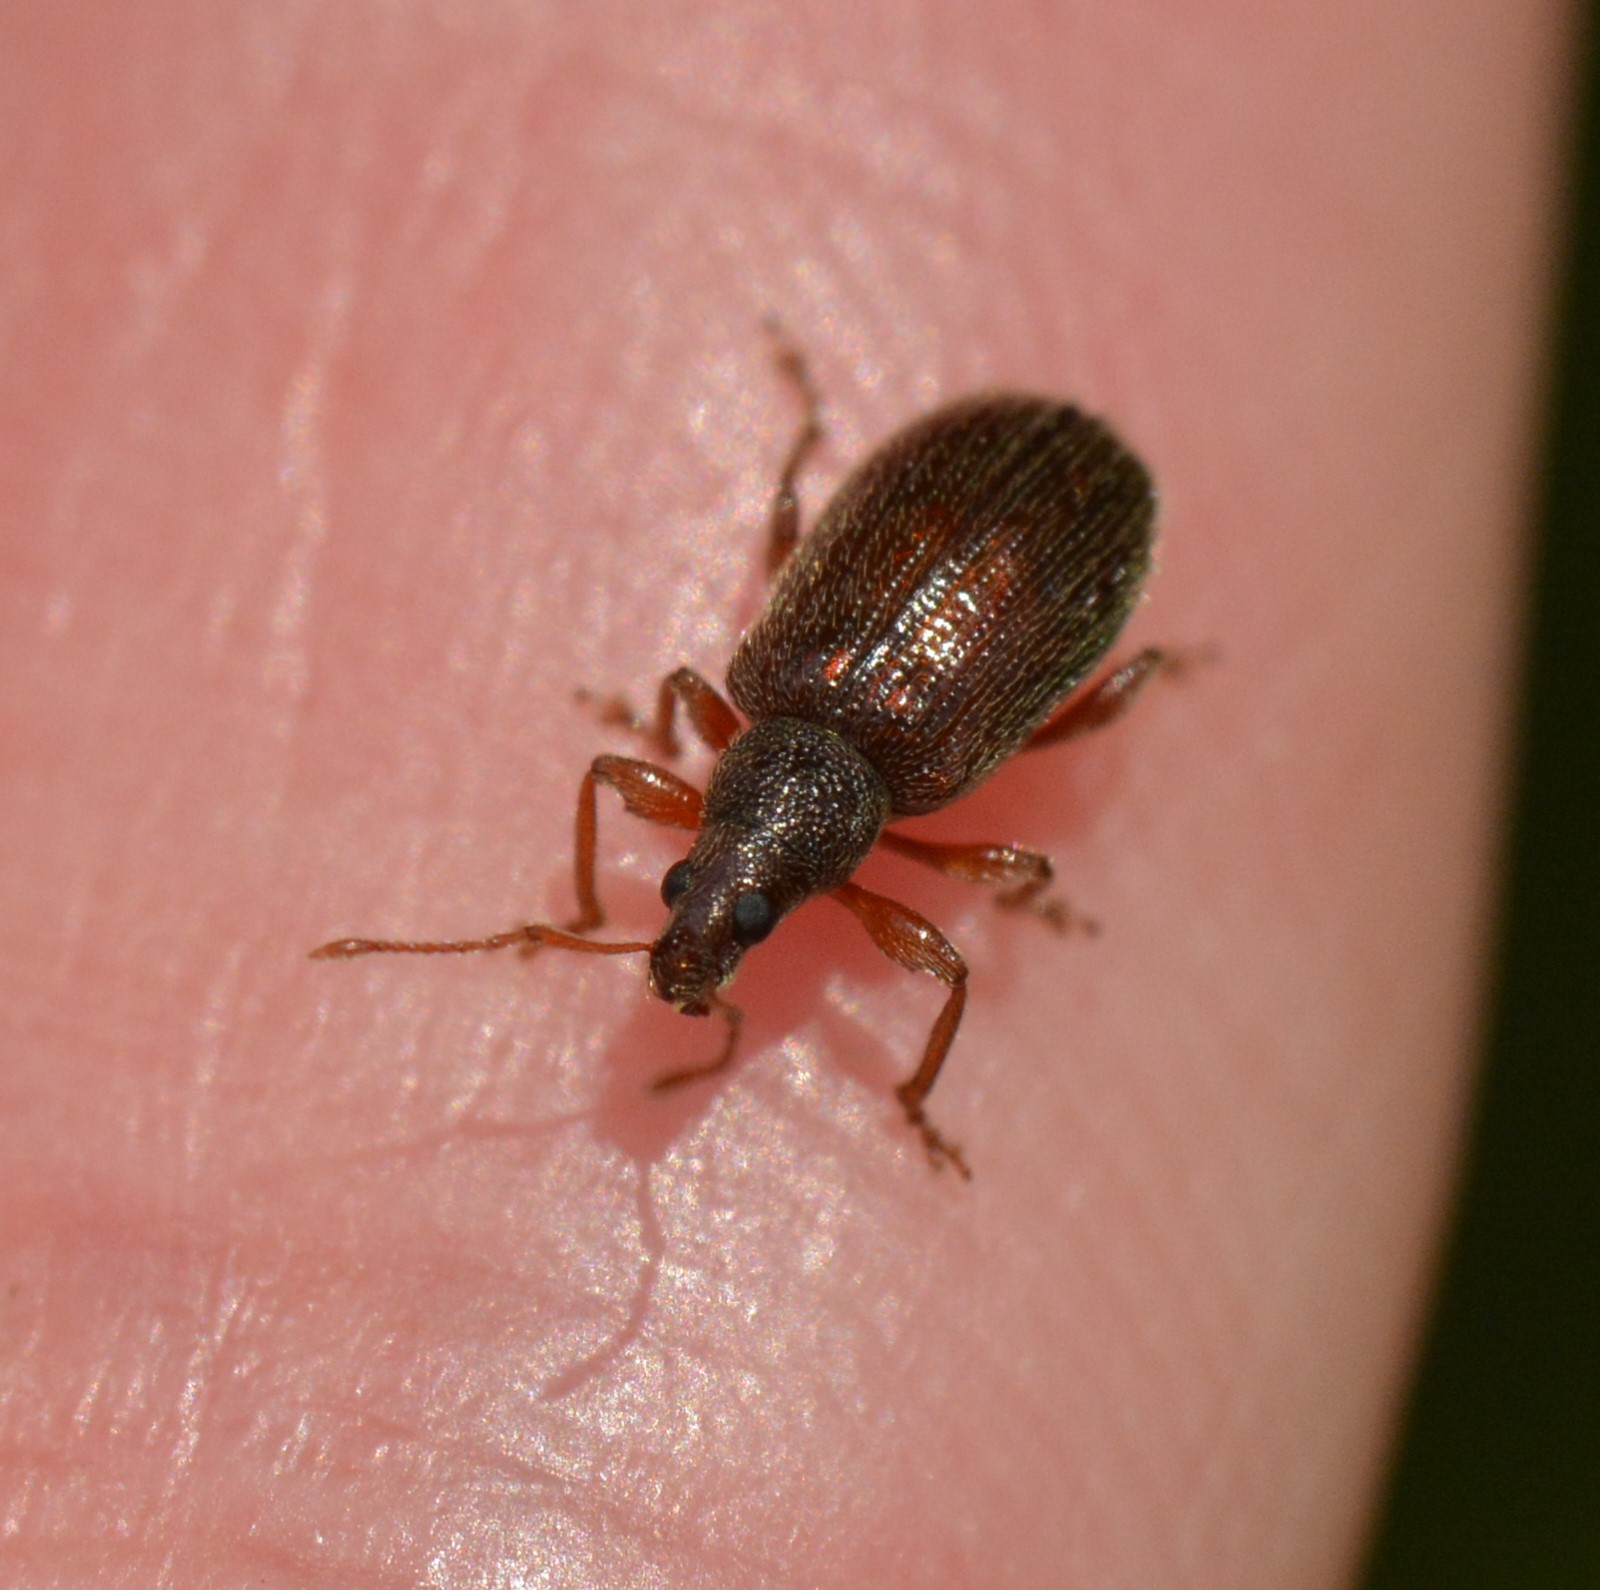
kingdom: Animalia
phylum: Arthropoda
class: Insecta
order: Coleoptera
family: Curculionidae
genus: Phyllobius
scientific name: Phyllobius oblongus
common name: Brown leaf weevil
